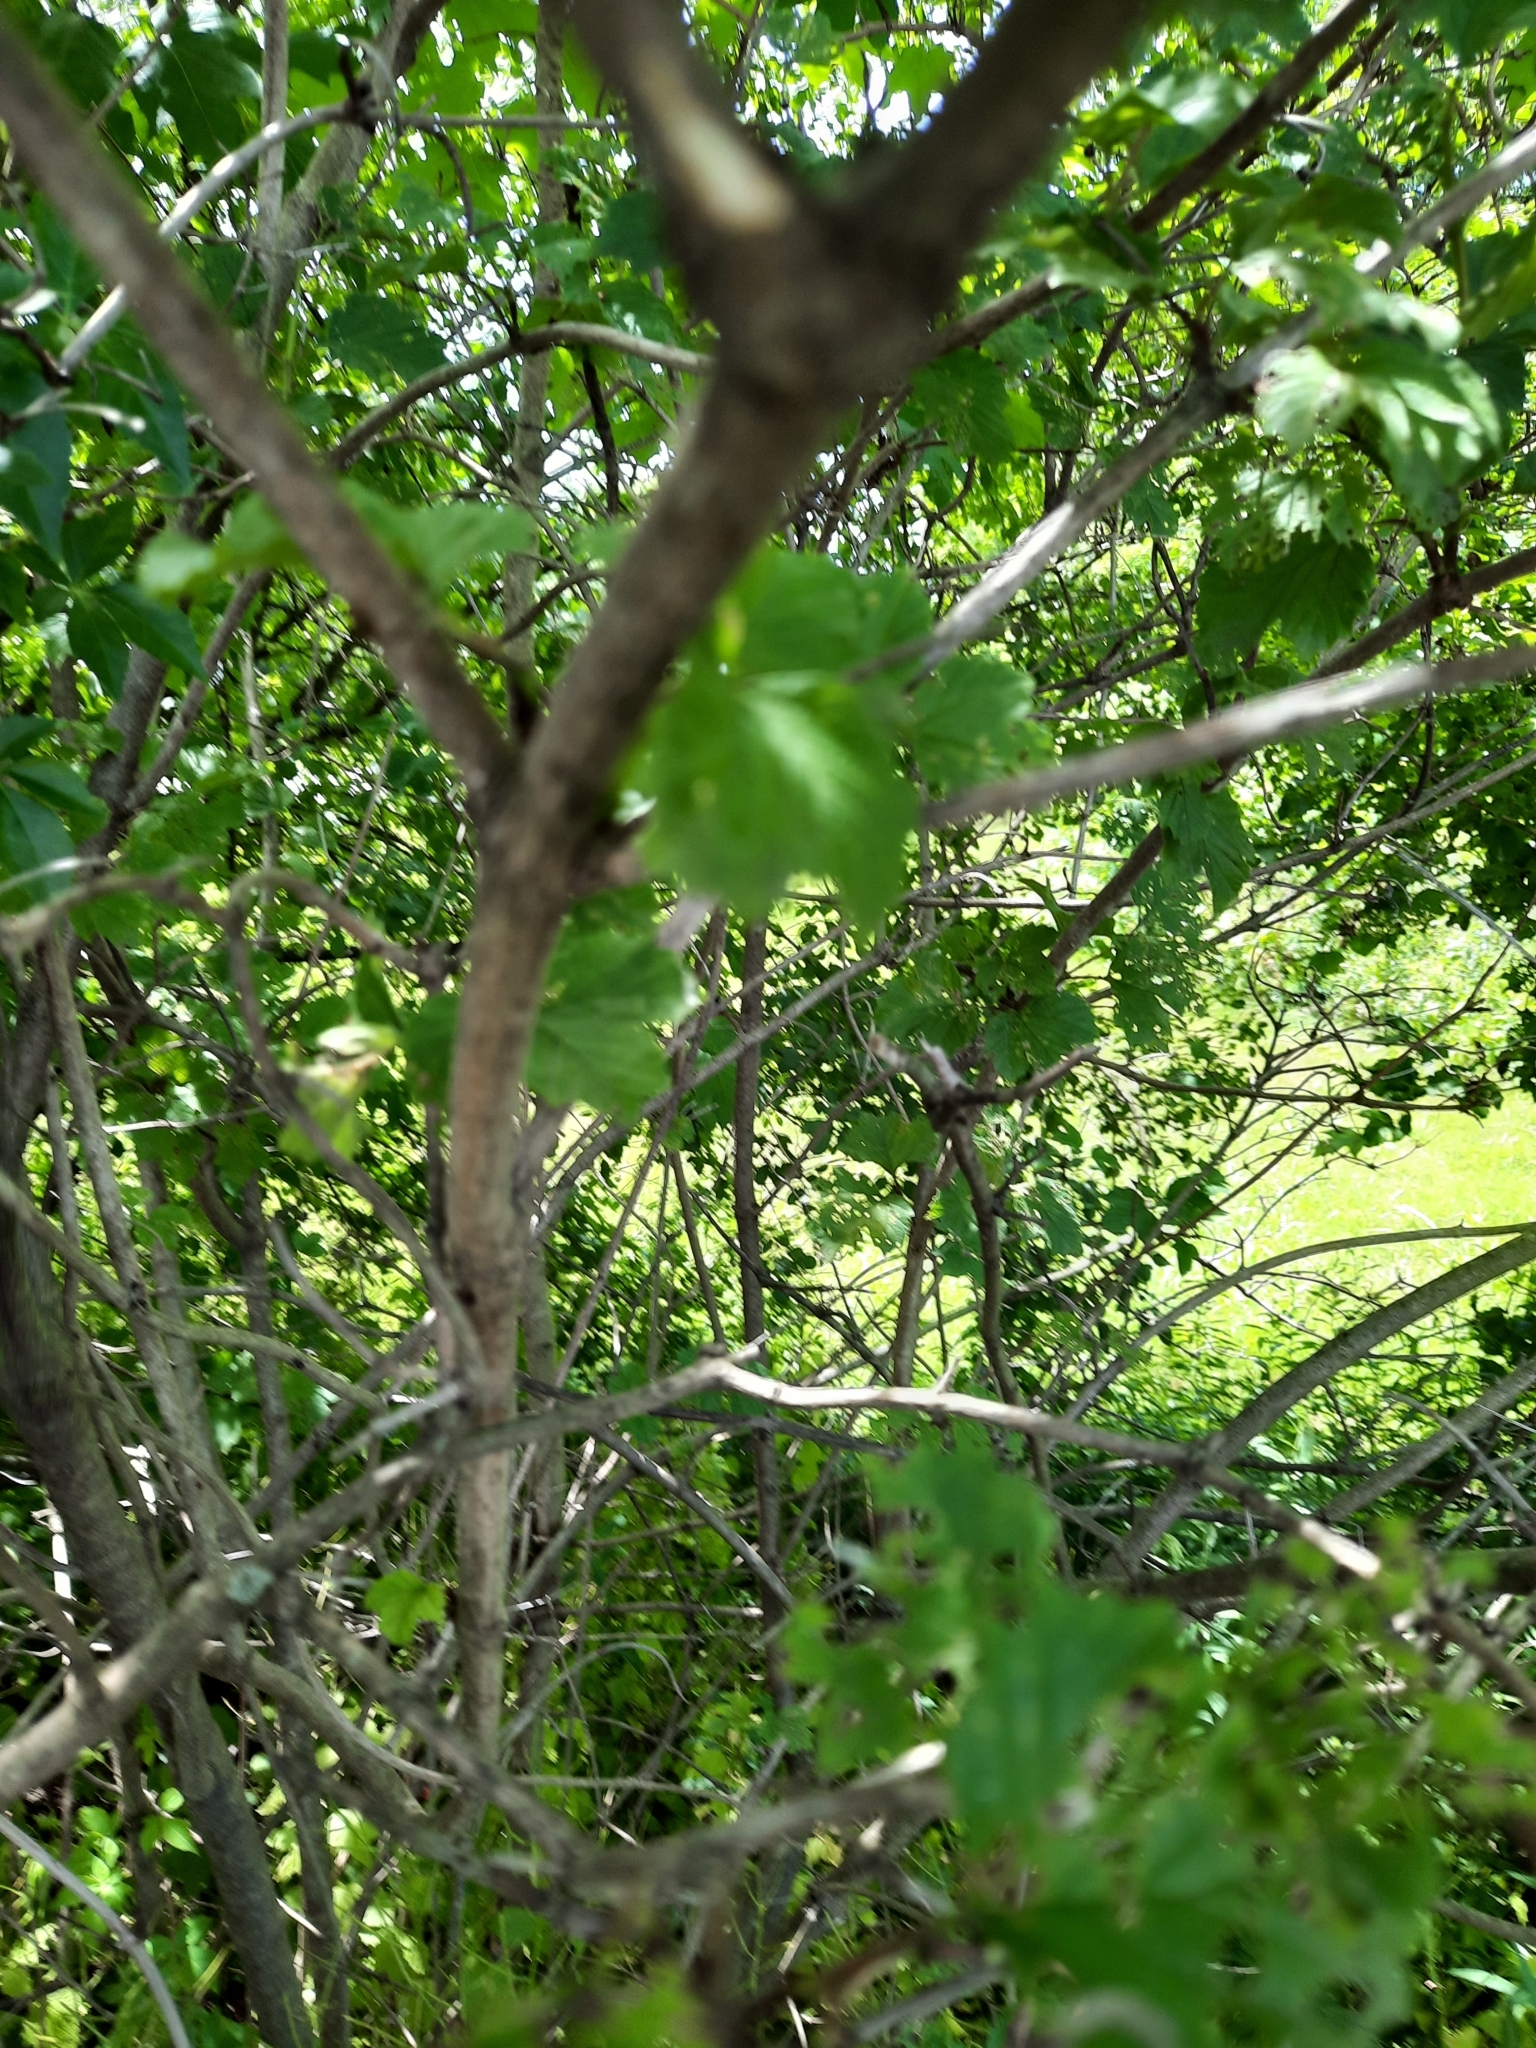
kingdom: Plantae
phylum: Tracheophyta
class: Magnoliopsida
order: Dipsacales
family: Viburnaceae
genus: Viburnum
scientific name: Viburnum opulus
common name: Guelder-rose
